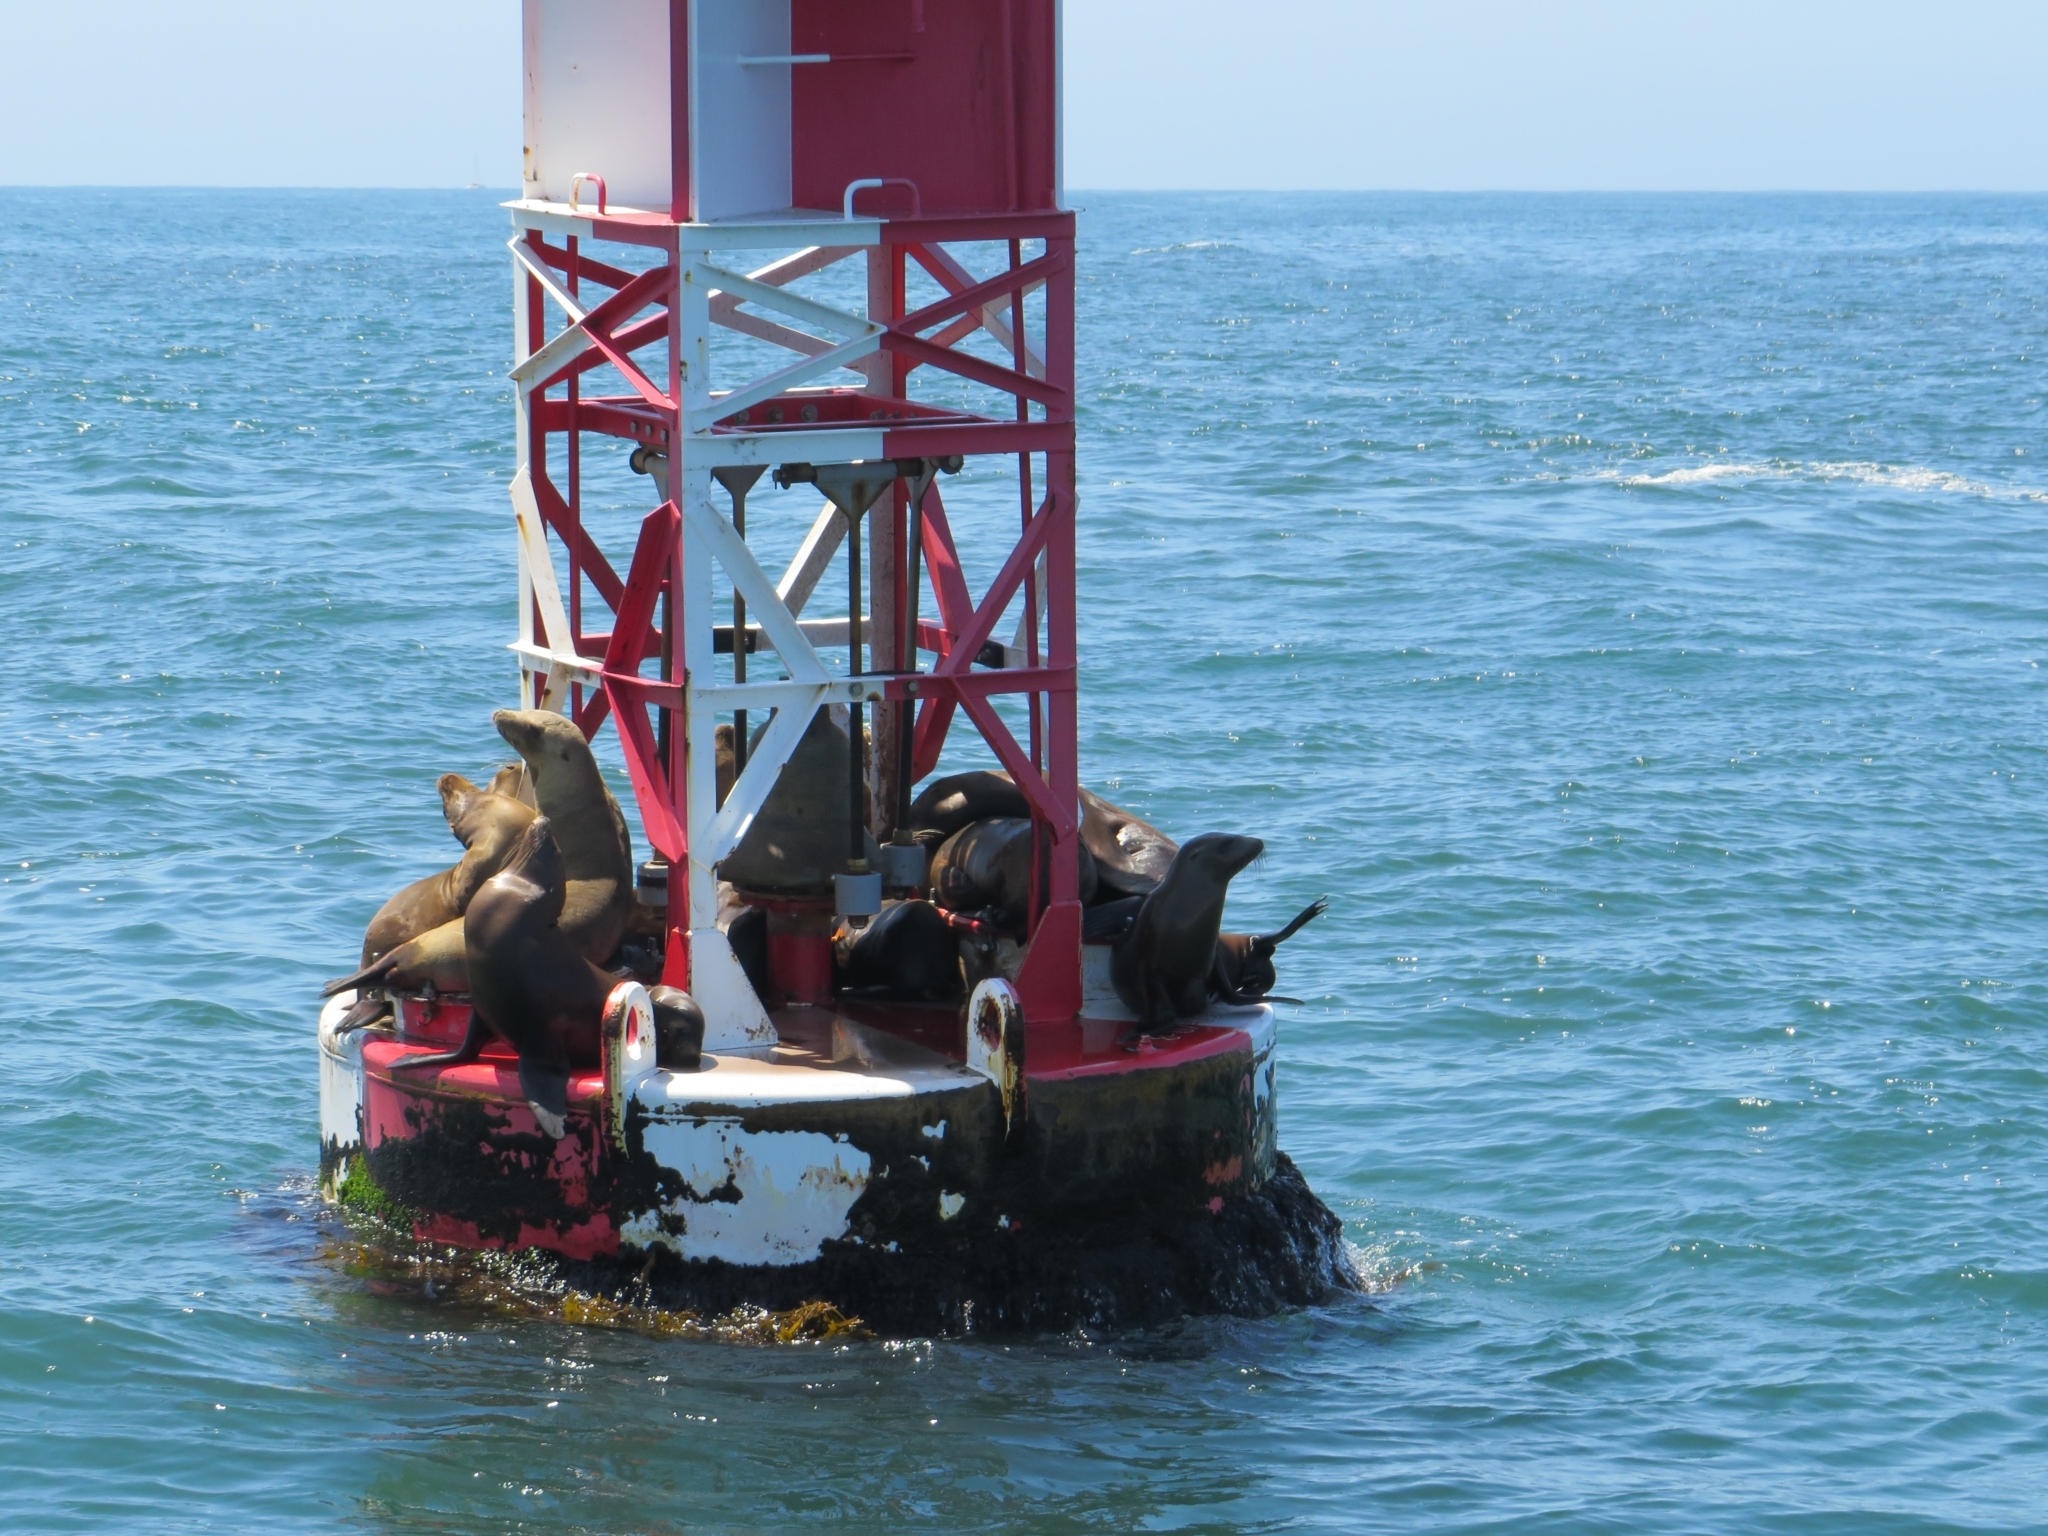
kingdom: Animalia
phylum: Chordata
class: Mammalia
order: Carnivora
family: Otariidae
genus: Zalophus
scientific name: Zalophus californianus
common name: California sea lion
